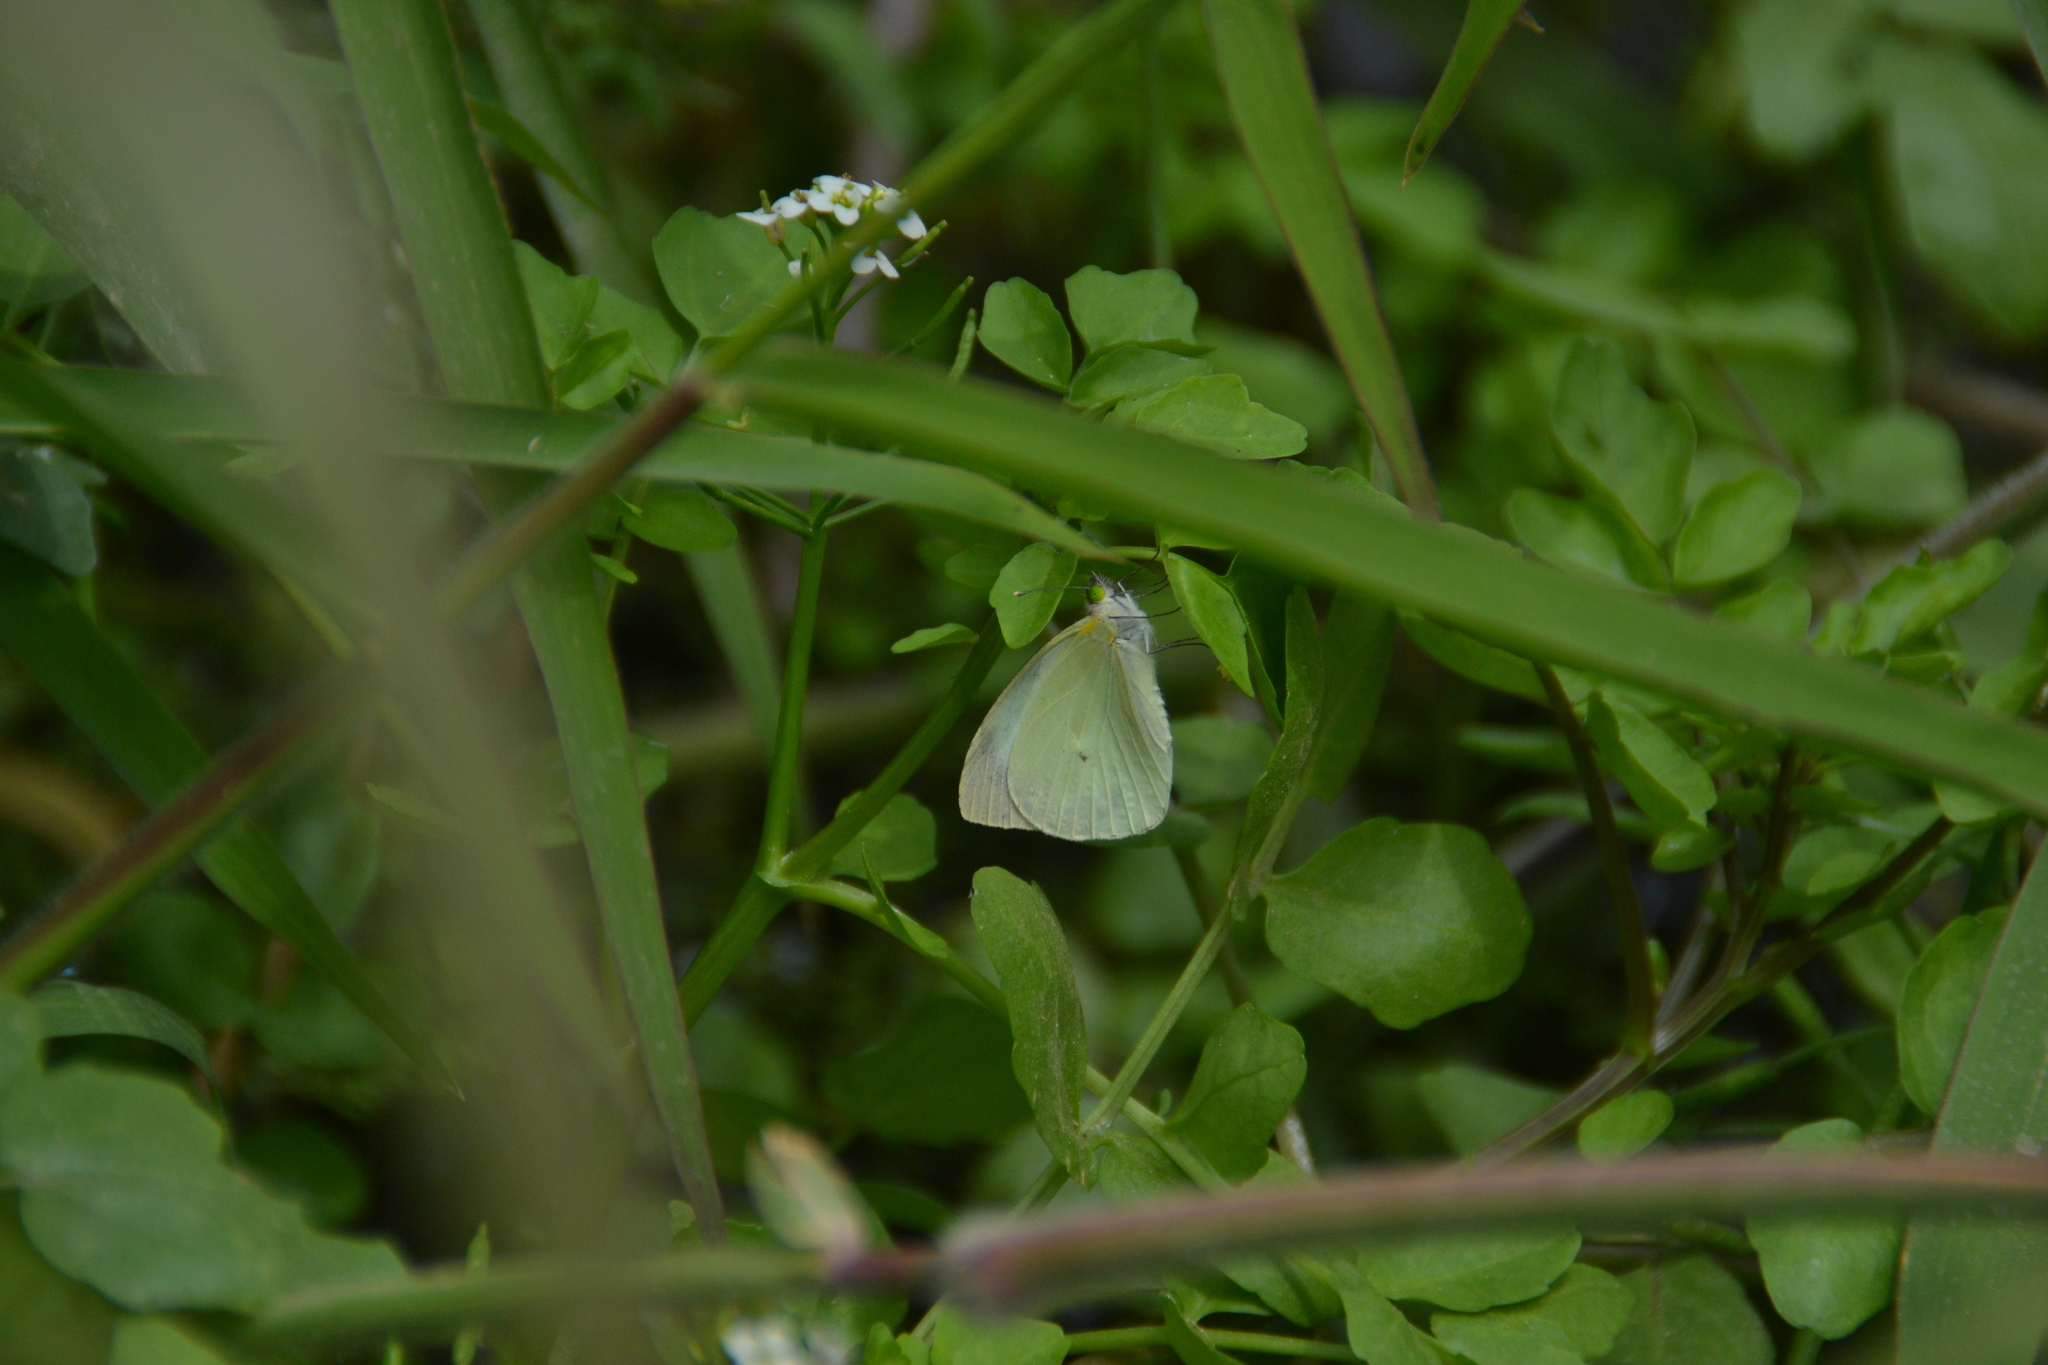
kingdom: Animalia
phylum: Arthropoda
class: Insecta
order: Lepidoptera
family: Pieridae
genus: Leptophobia
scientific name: Leptophobia aripa
